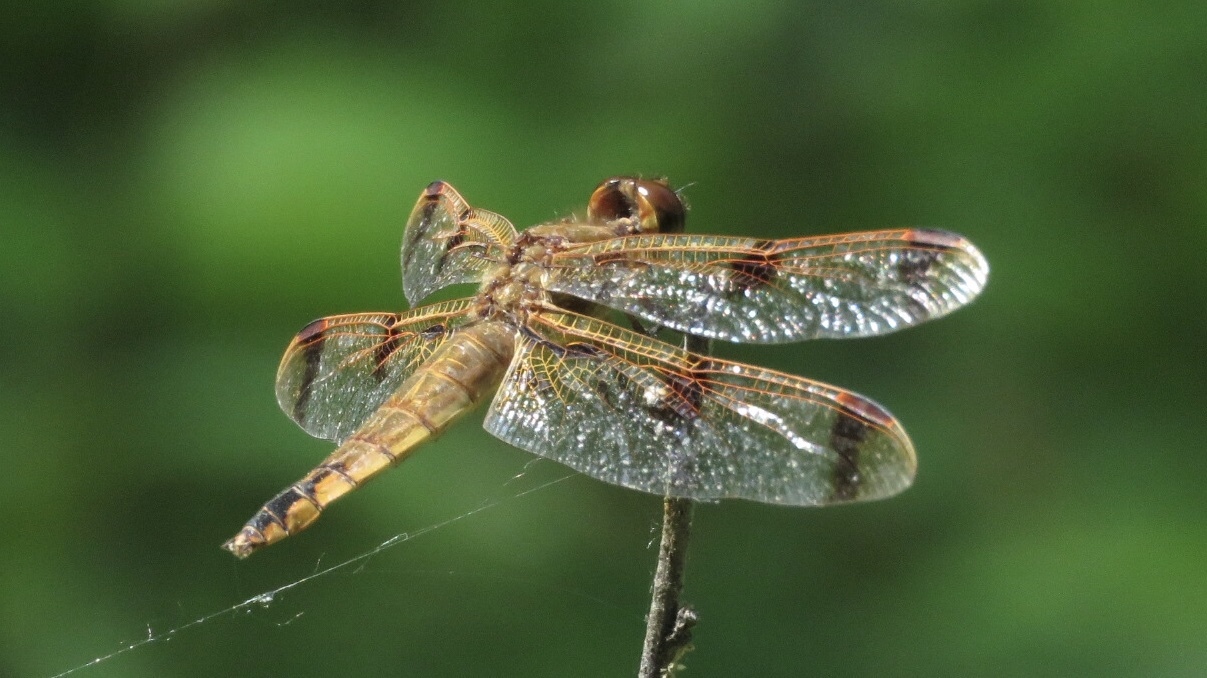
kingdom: Animalia
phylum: Arthropoda
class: Insecta
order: Odonata
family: Libellulidae
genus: Libellula
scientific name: Libellula semifasciata
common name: Painted skimmer
